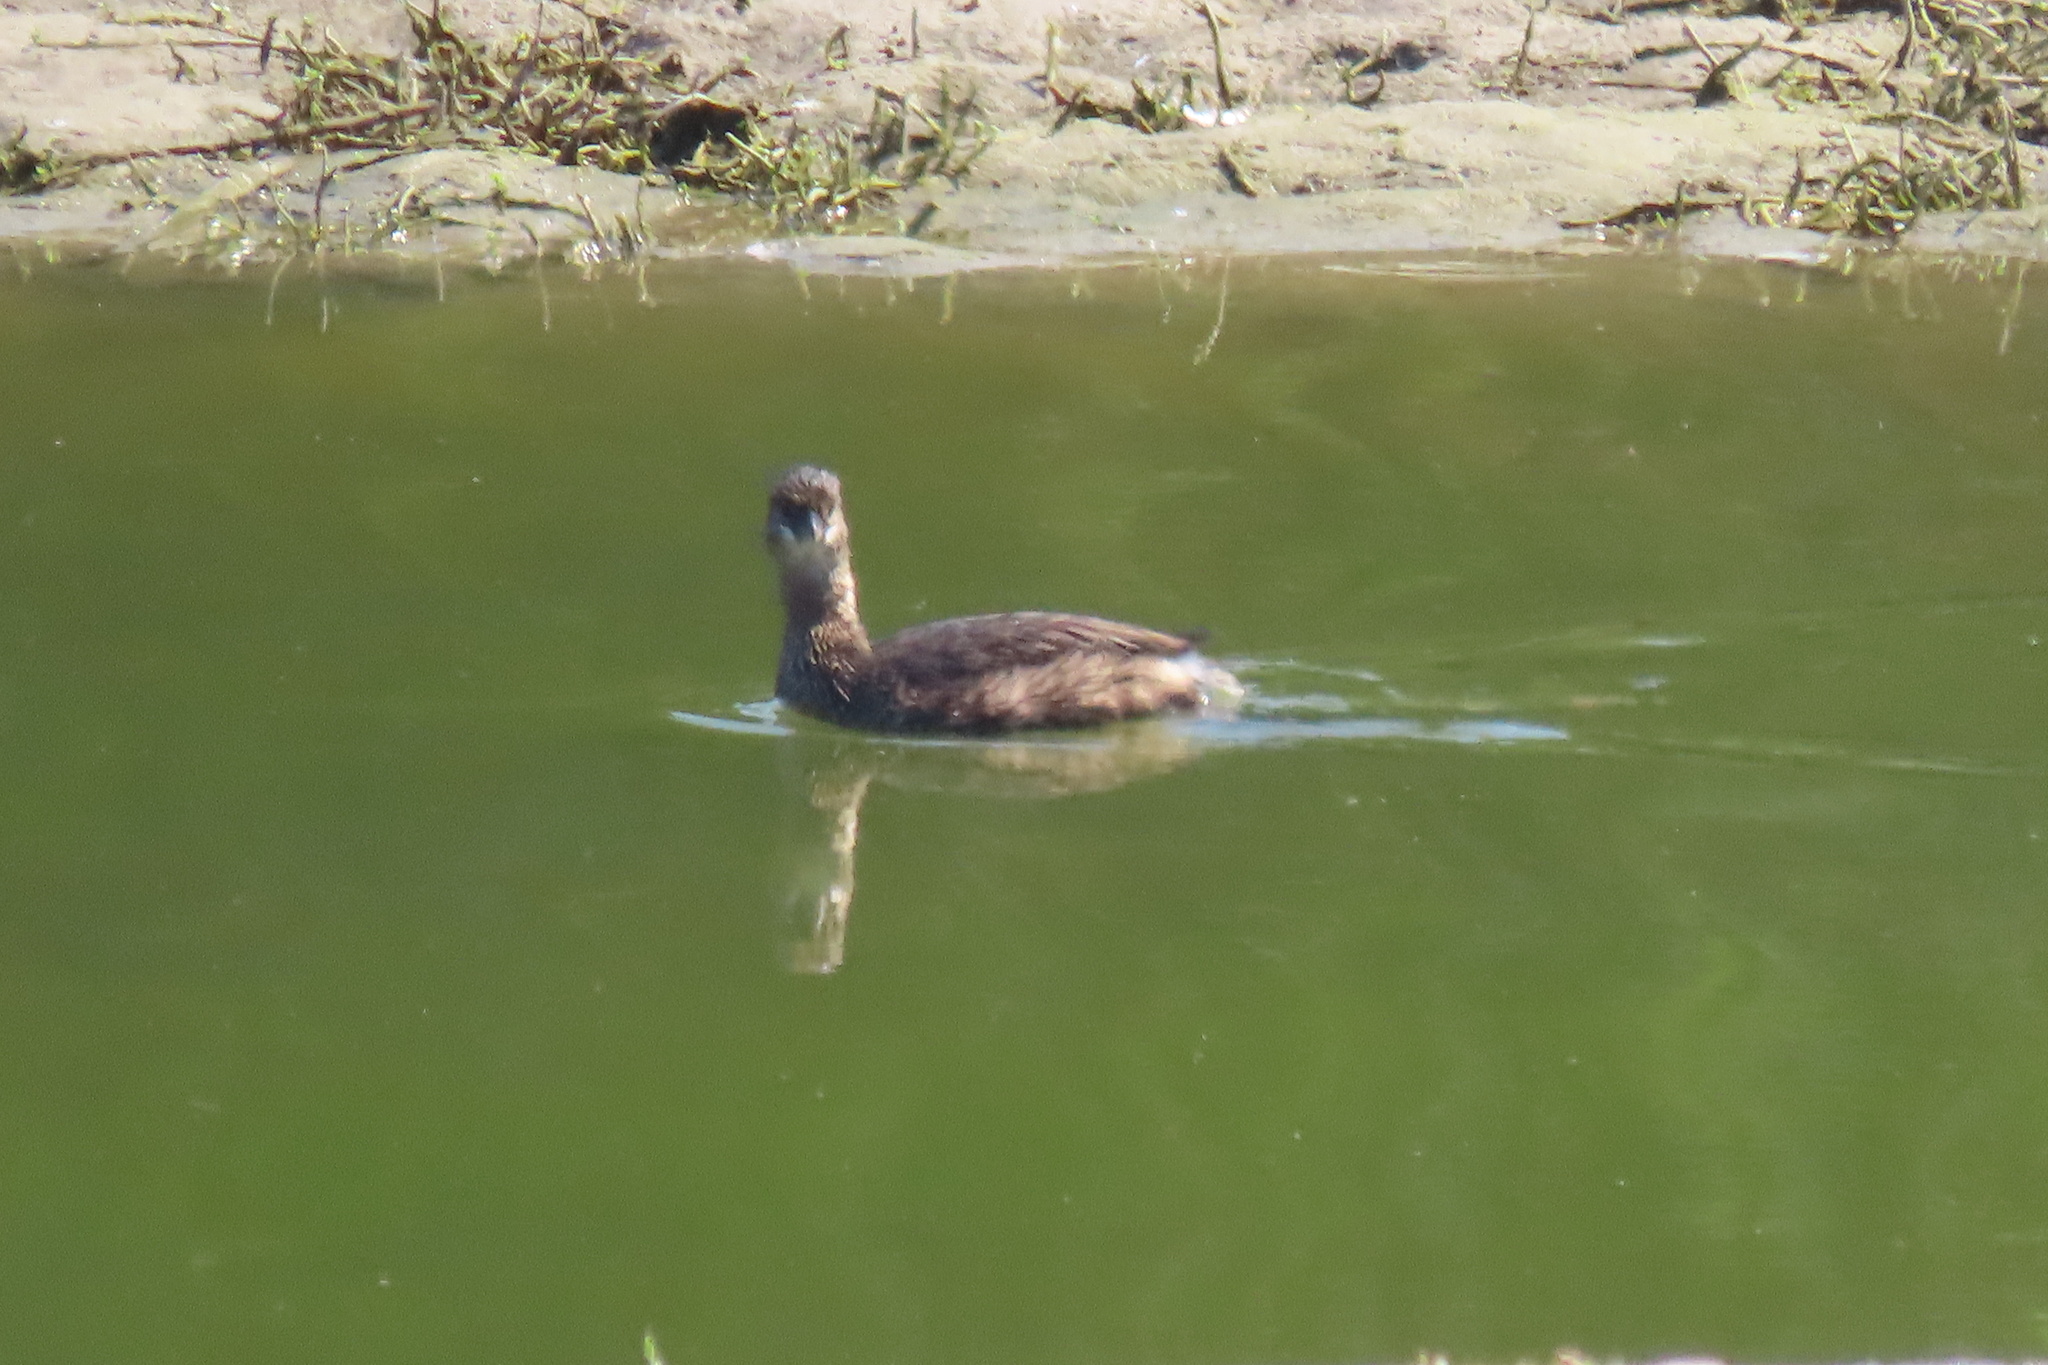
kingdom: Animalia
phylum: Chordata
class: Aves
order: Podicipediformes
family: Podicipedidae
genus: Podilymbus
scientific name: Podilymbus podiceps
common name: Pied-billed grebe
